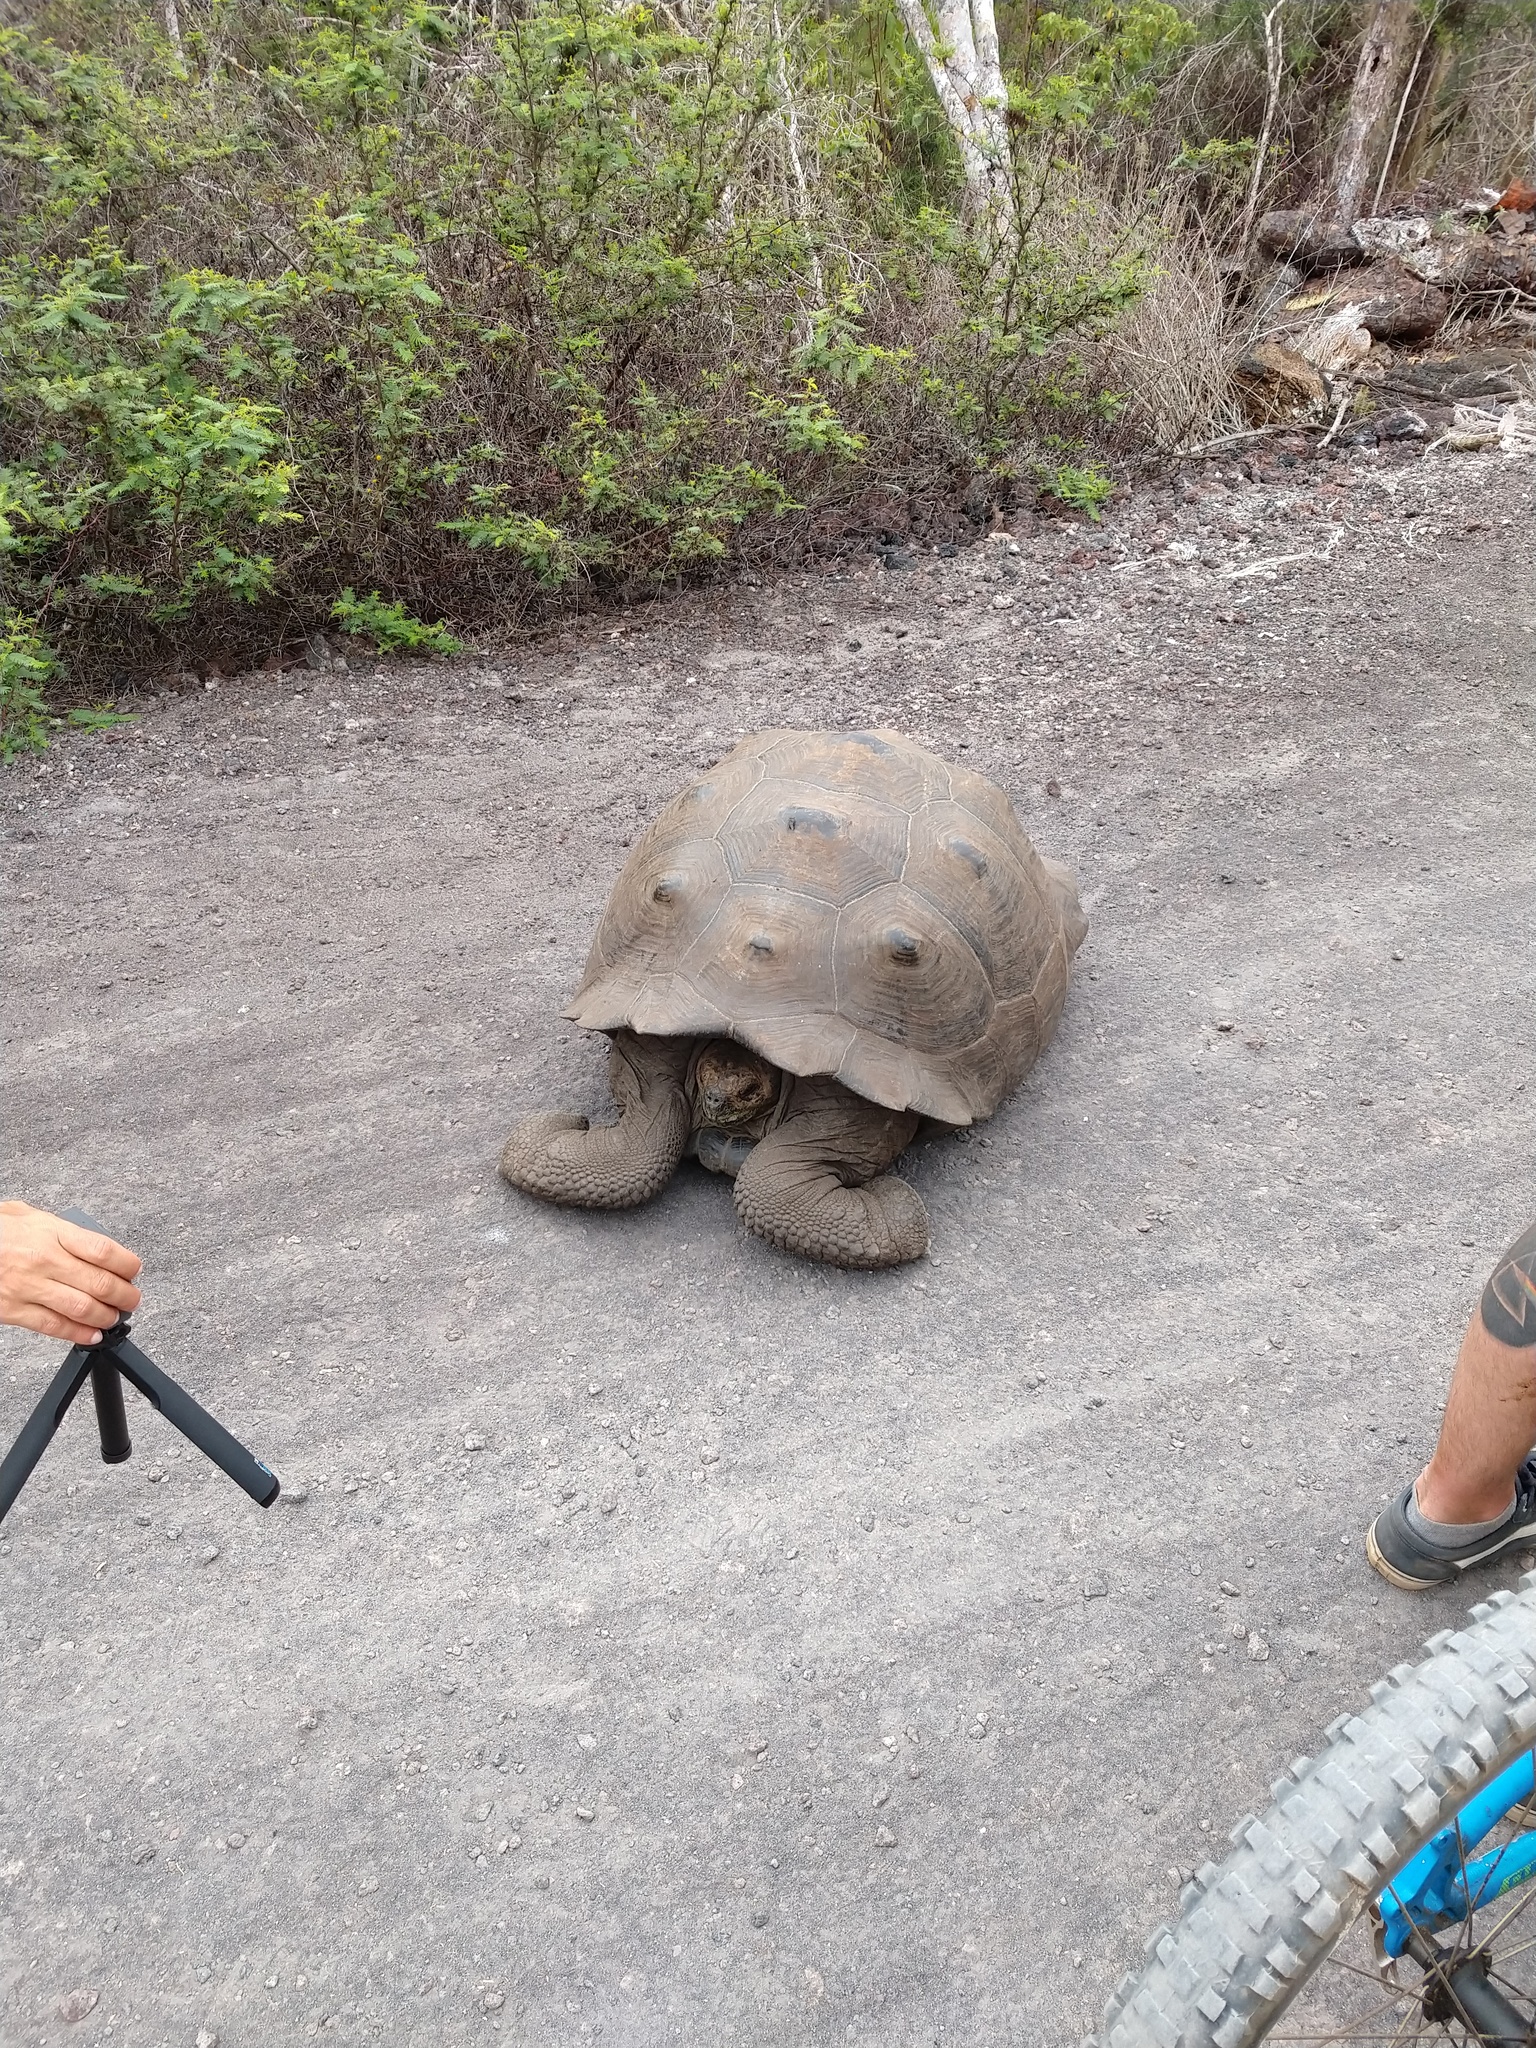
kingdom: Animalia
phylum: Chordata
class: Testudines
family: Testudinidae
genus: Chelonoidis
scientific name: Chelonoidis guntheri
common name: Sierra negra giant tortoise
